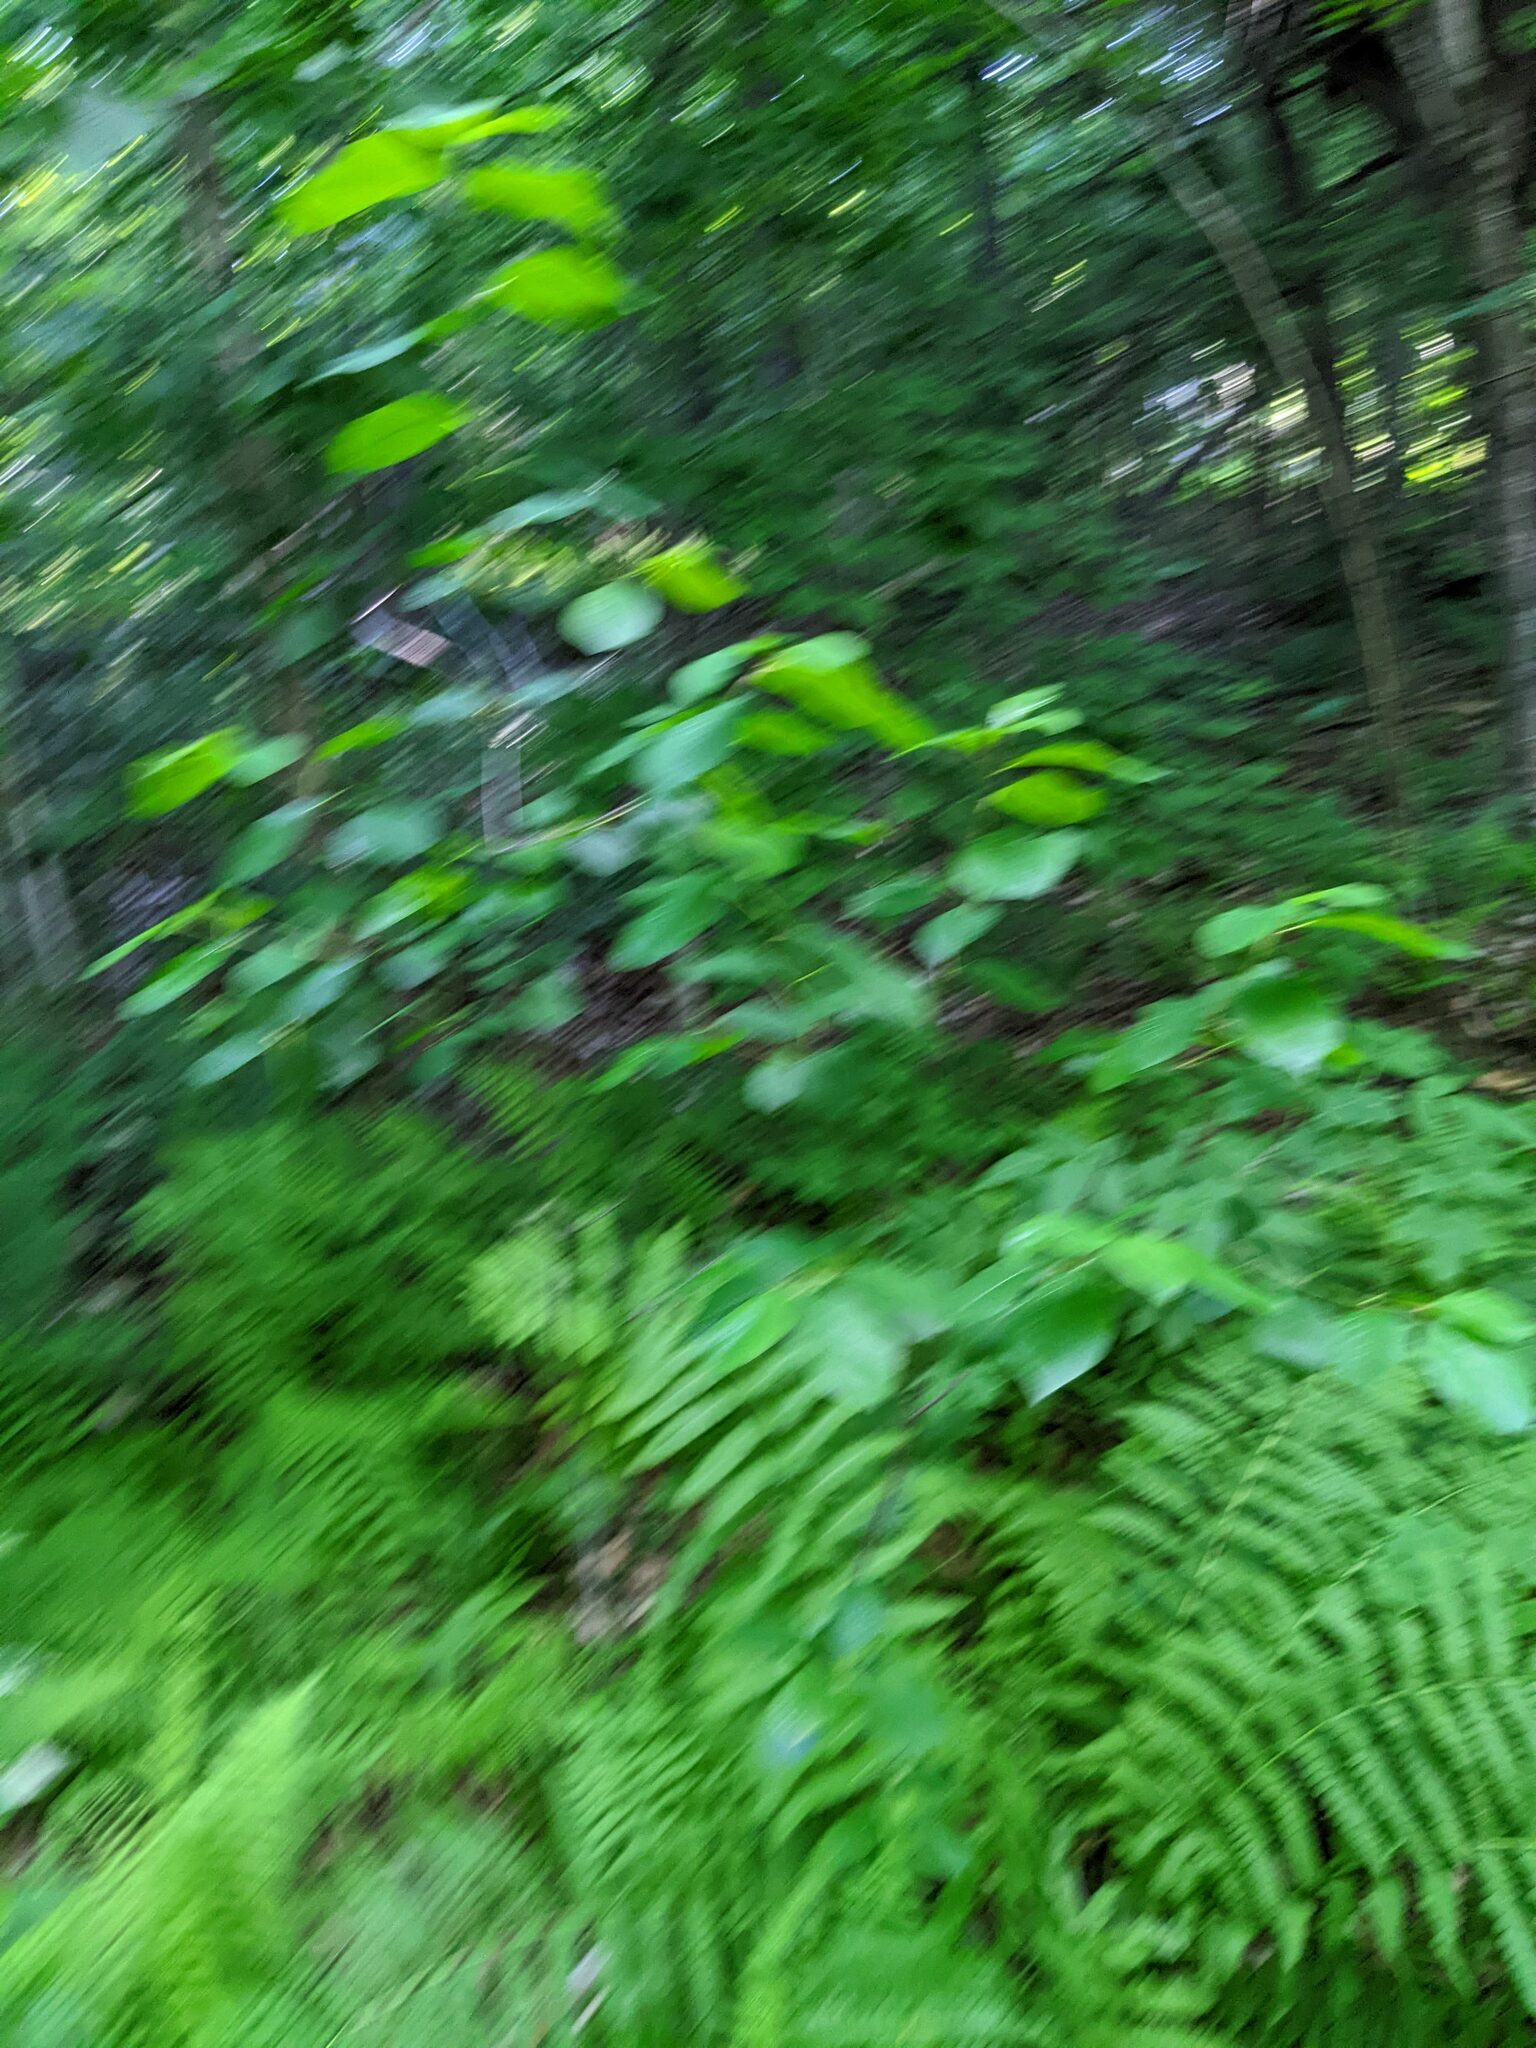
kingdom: Plantae
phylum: Tracheophyta
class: Magnoliopsida
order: Rosales
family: Rhamnaceae
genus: Frangula
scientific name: Frangula alnus
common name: Alder buckthorn
